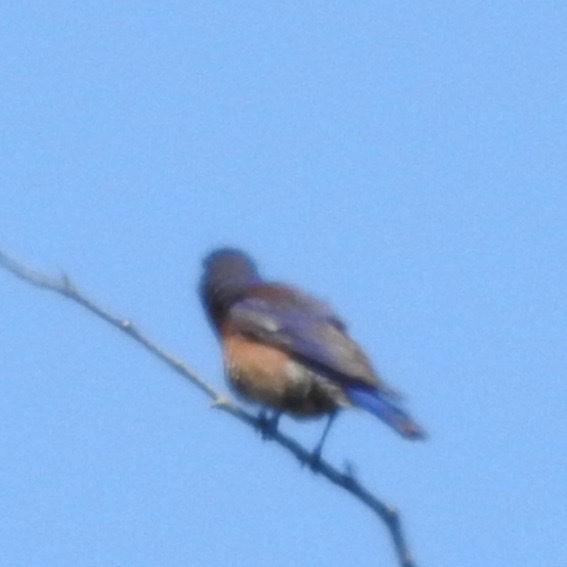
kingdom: Animalia
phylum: Chordata
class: Aves
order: Passeriformes
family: Turdidae
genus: Sialia
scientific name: Sialia mexicana
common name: Western bluebird
